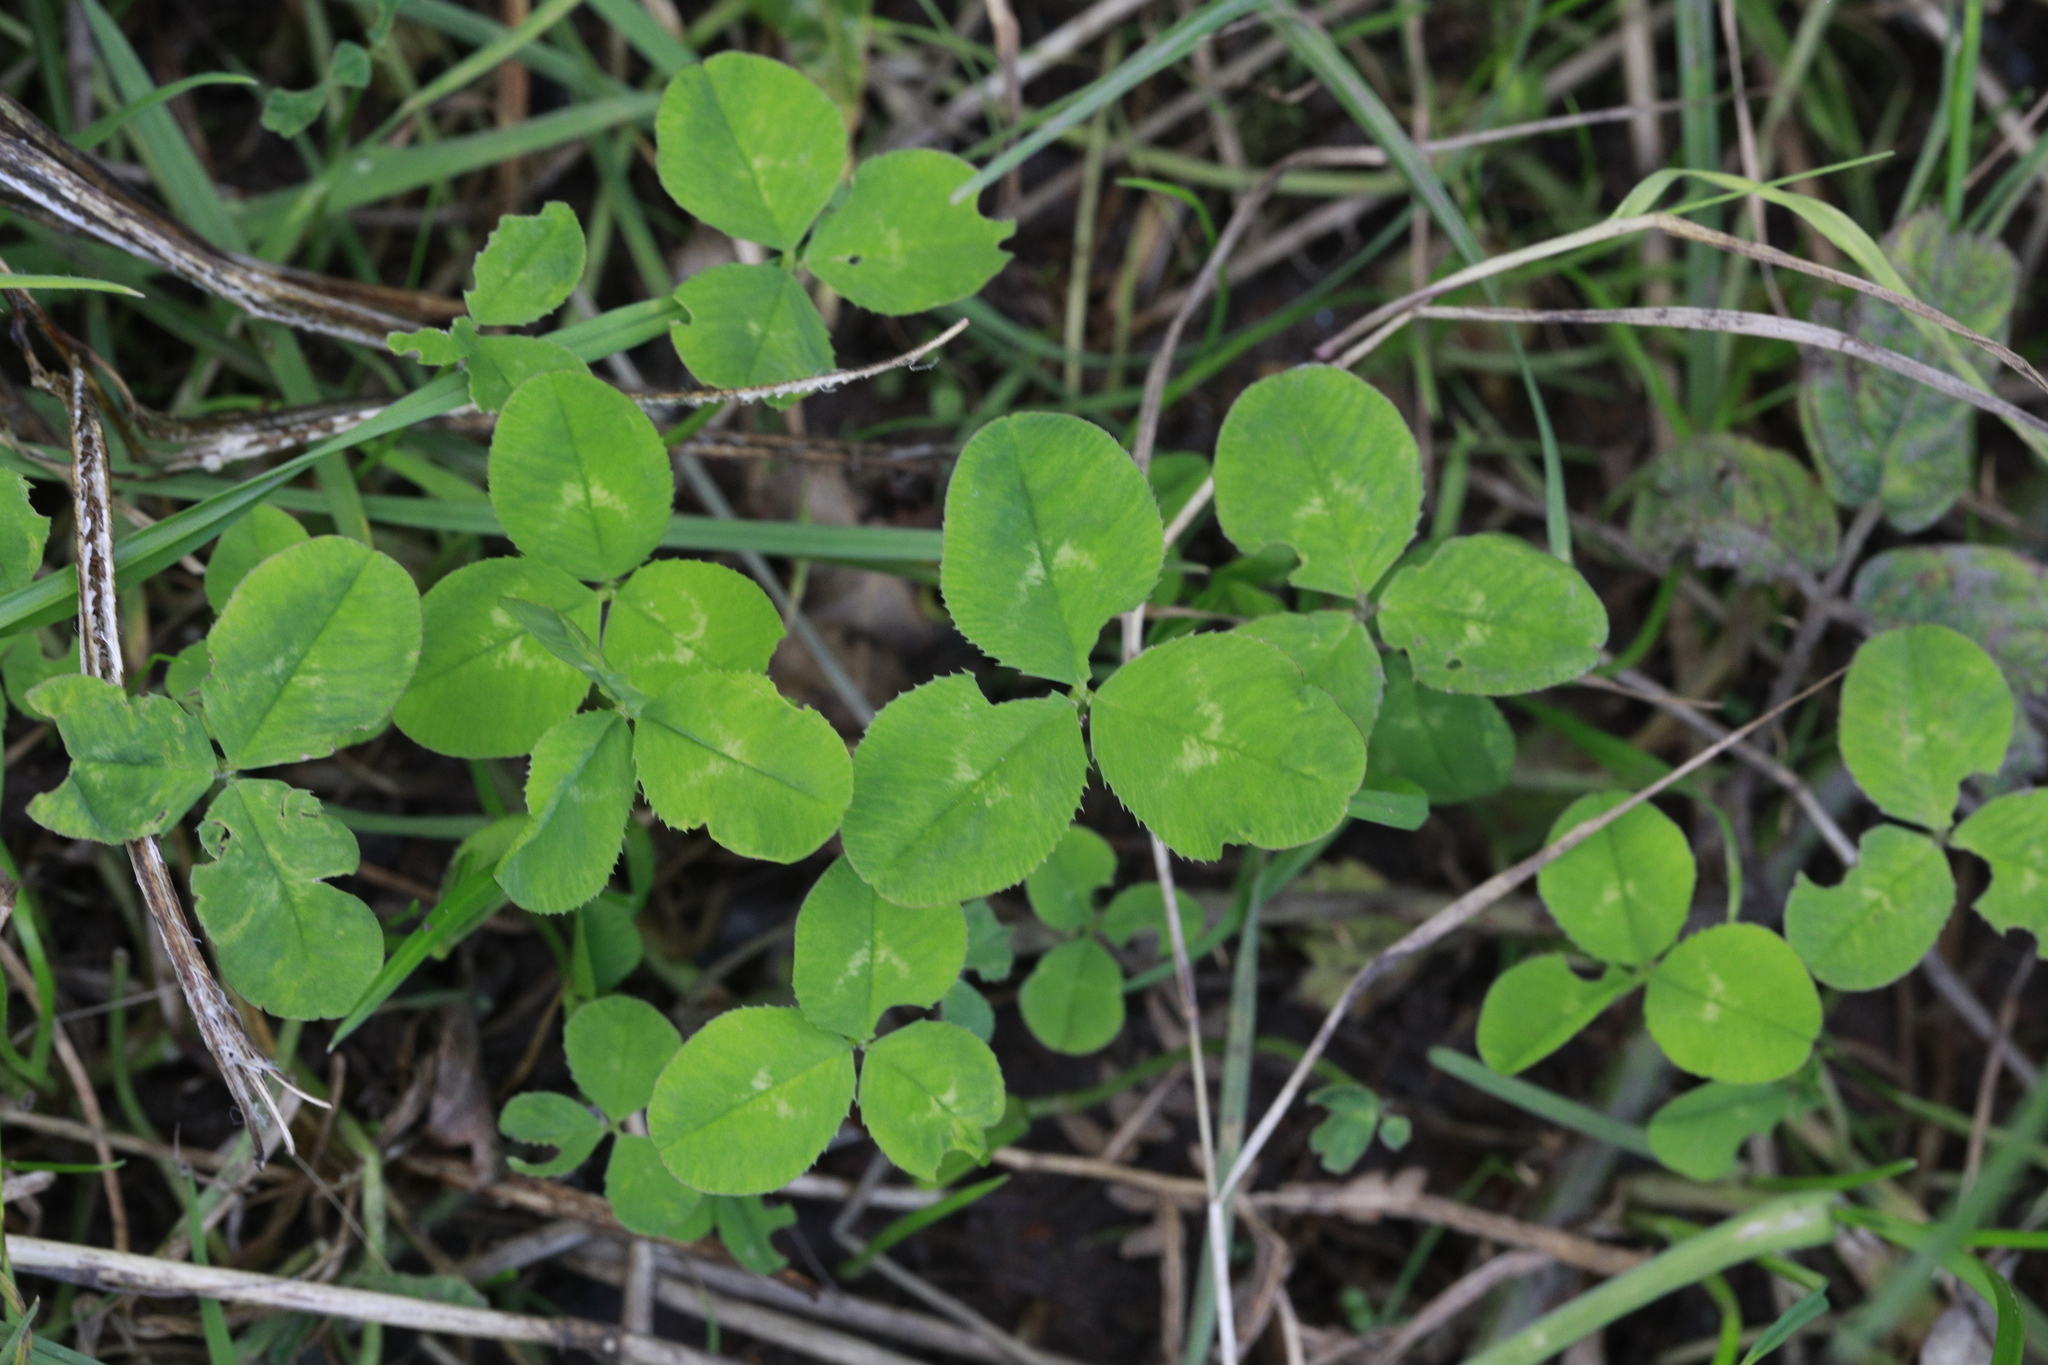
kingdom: Plantae
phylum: Tracheophyta
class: Magnoliopsida
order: Fabales
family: Fabaceae
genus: Trifolium
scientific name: Trifolium repens
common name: White clover
